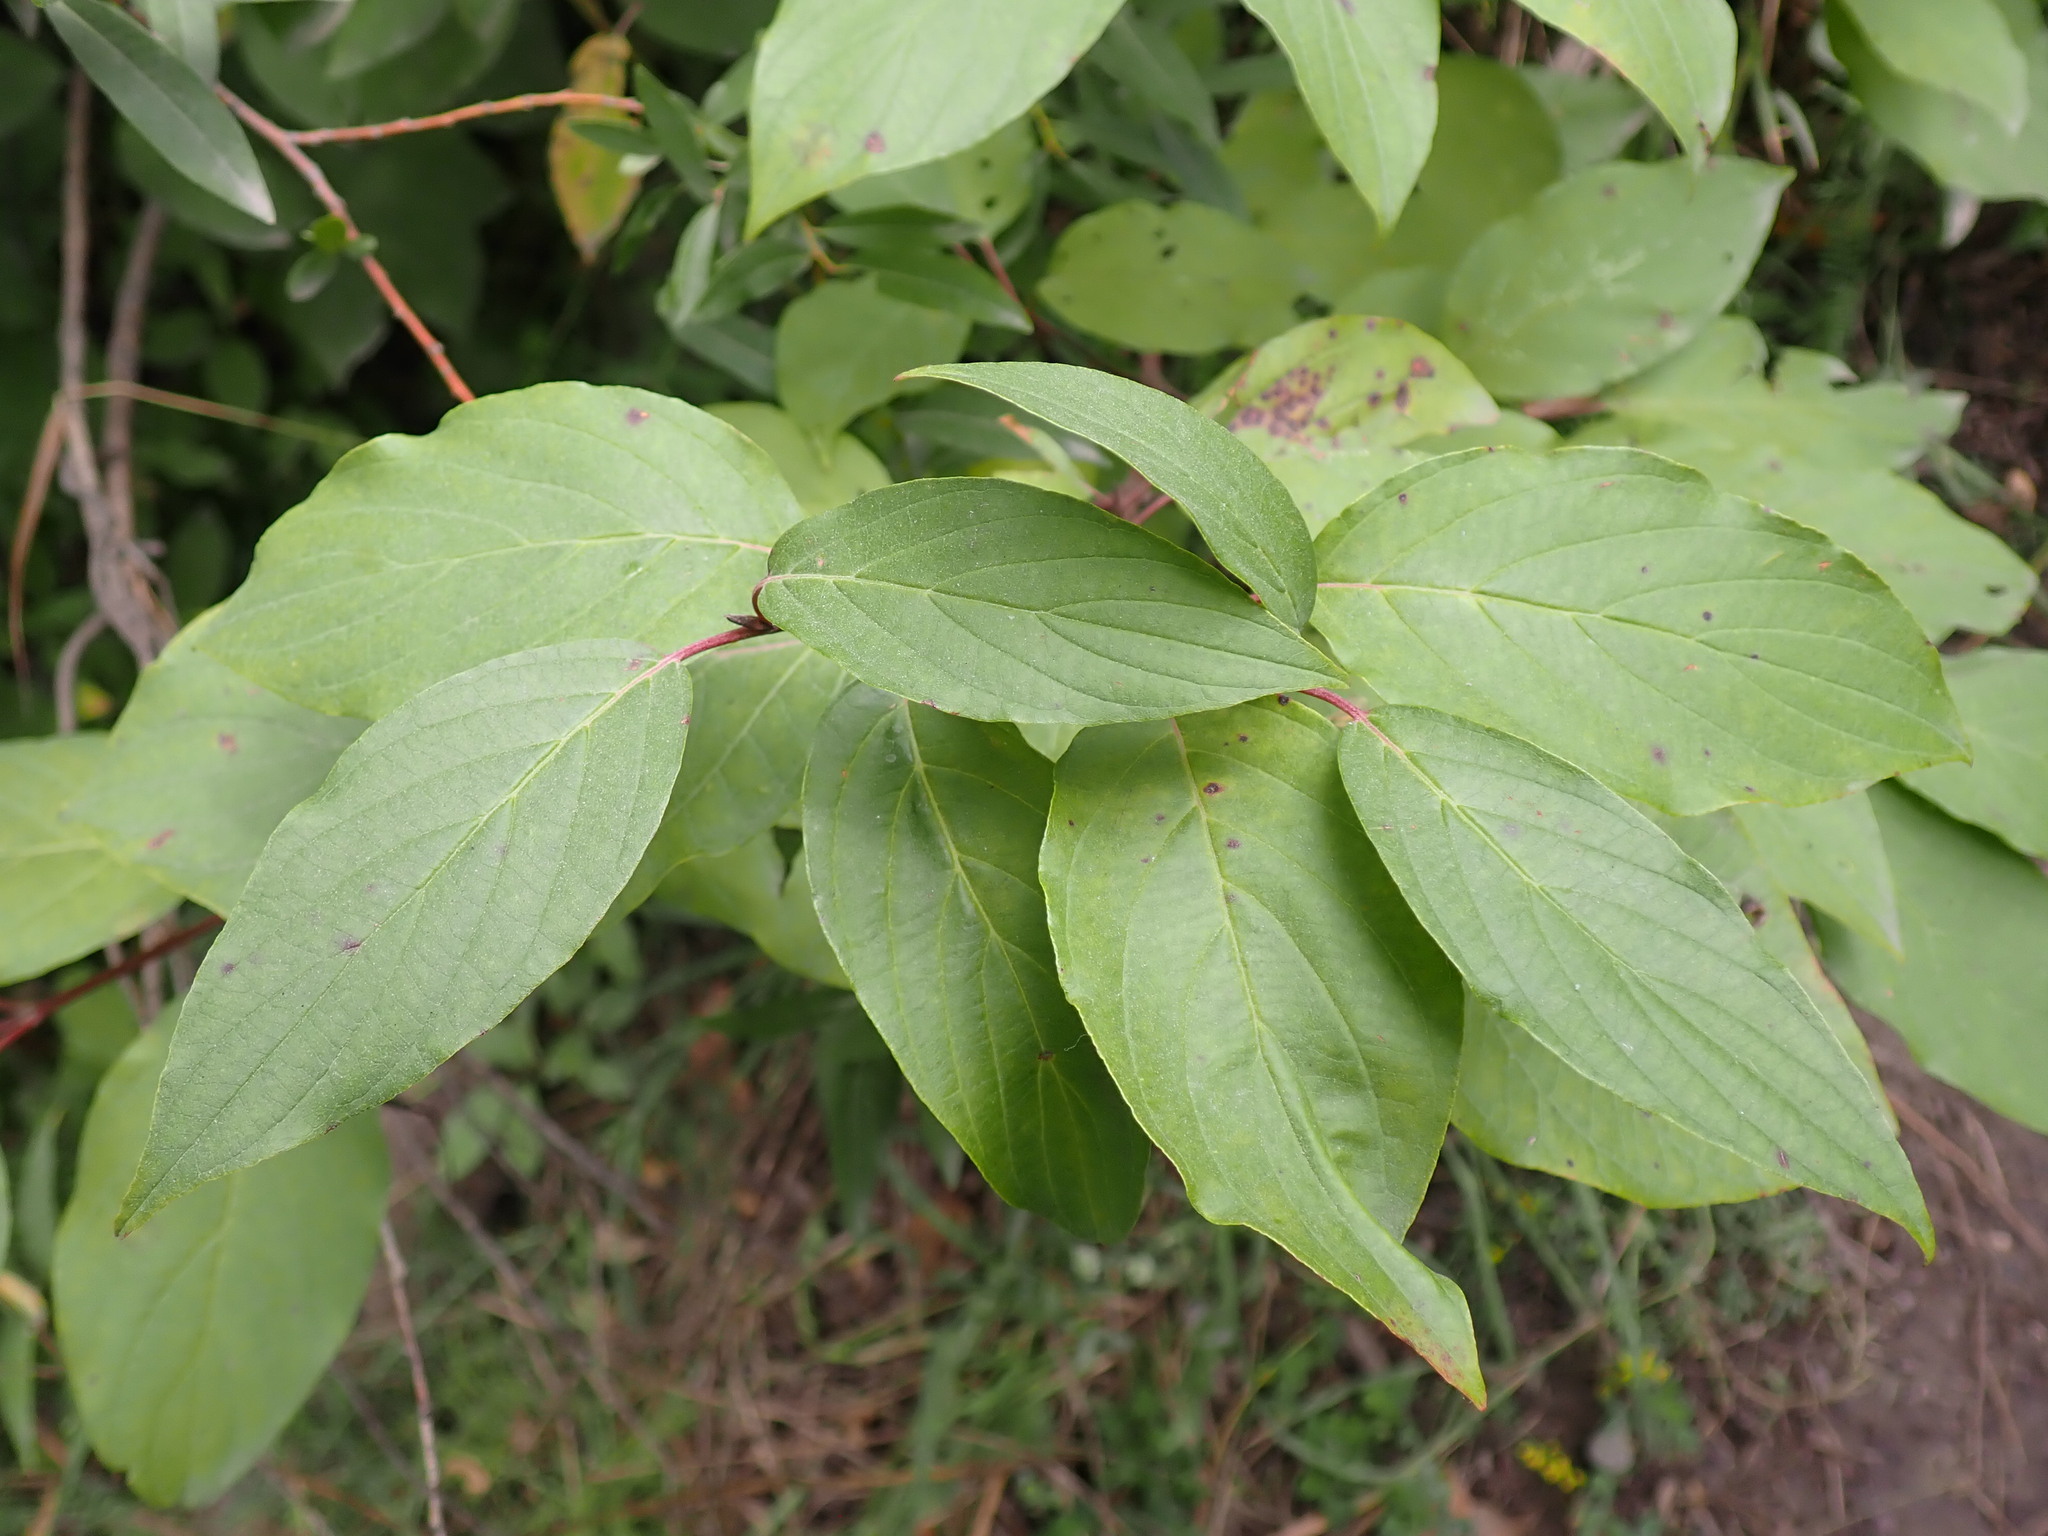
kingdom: Plantae
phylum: Tracheophyta
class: Magnoliopsida
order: Cornales
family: Cornaceae
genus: Cornus
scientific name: Cornus sericea
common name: Red-osier dogwood
